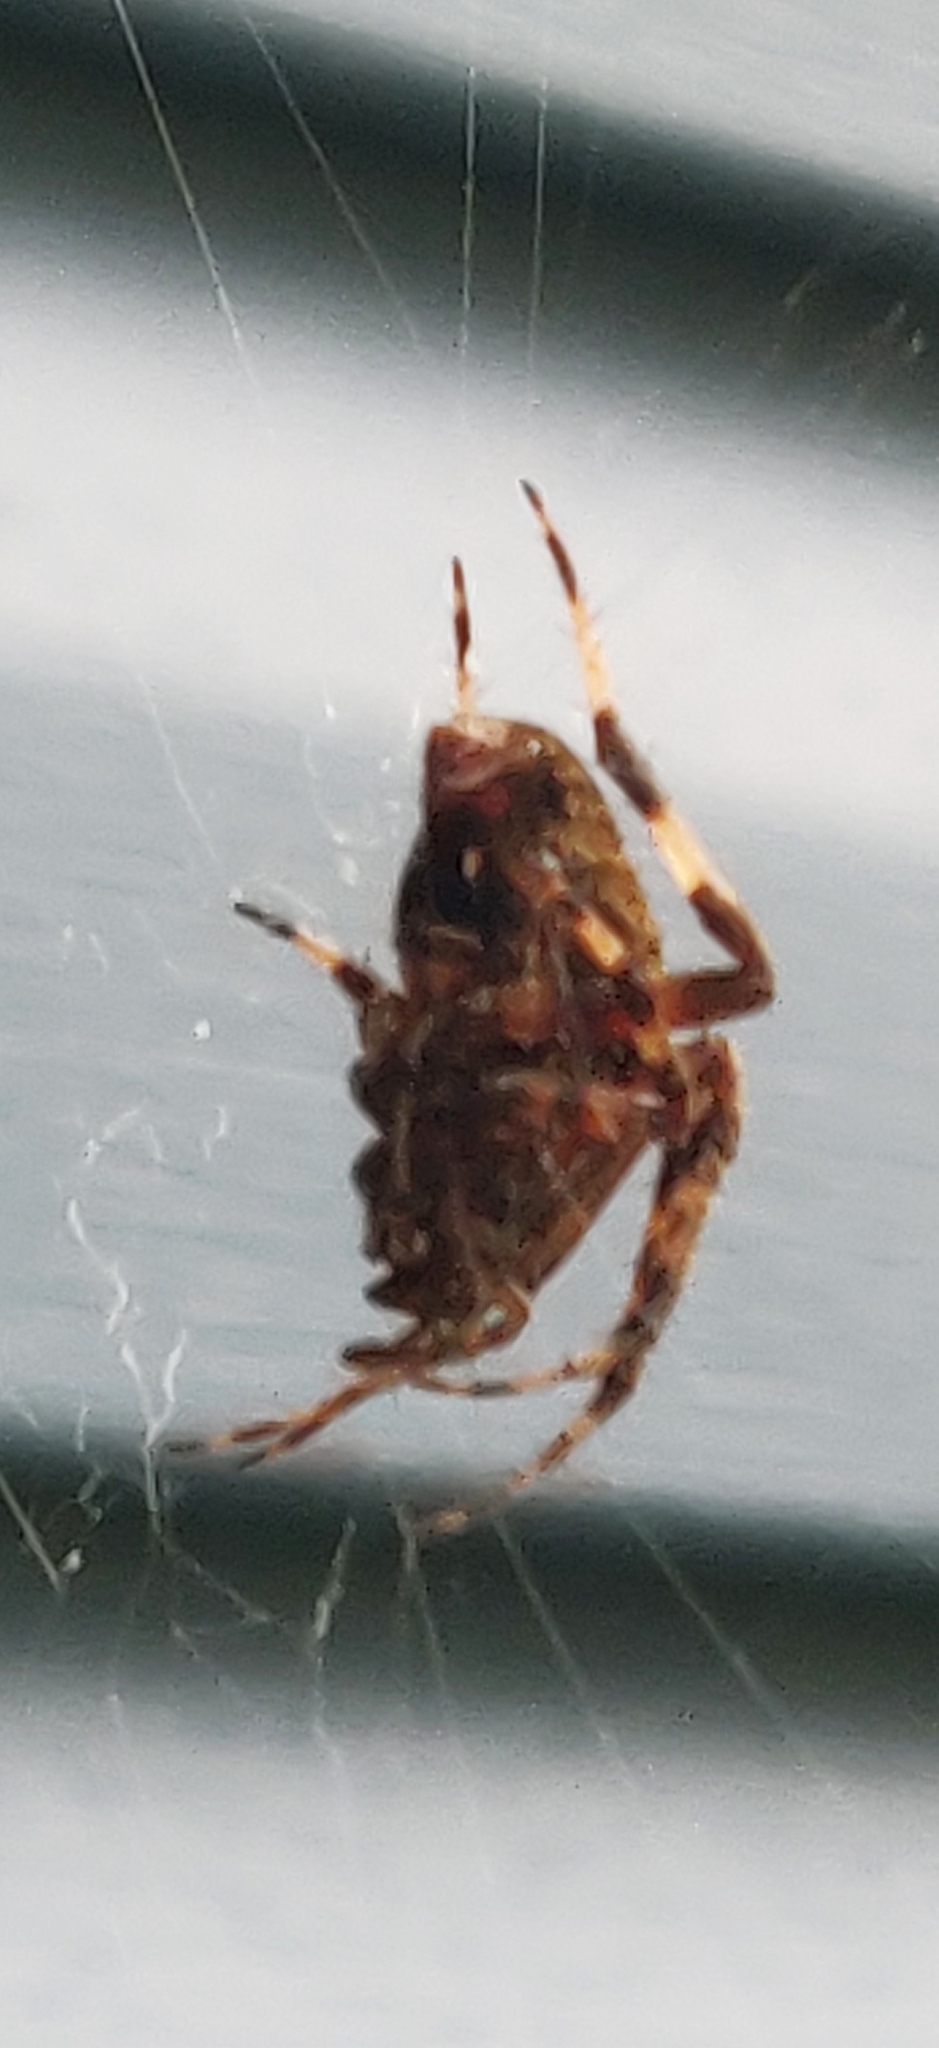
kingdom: Animalia
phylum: Arthropoda
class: Arachnida
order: Araneae
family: Araneidae
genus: Neoscona
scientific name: Neoscona crucifera
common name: Spotted orbweaver
